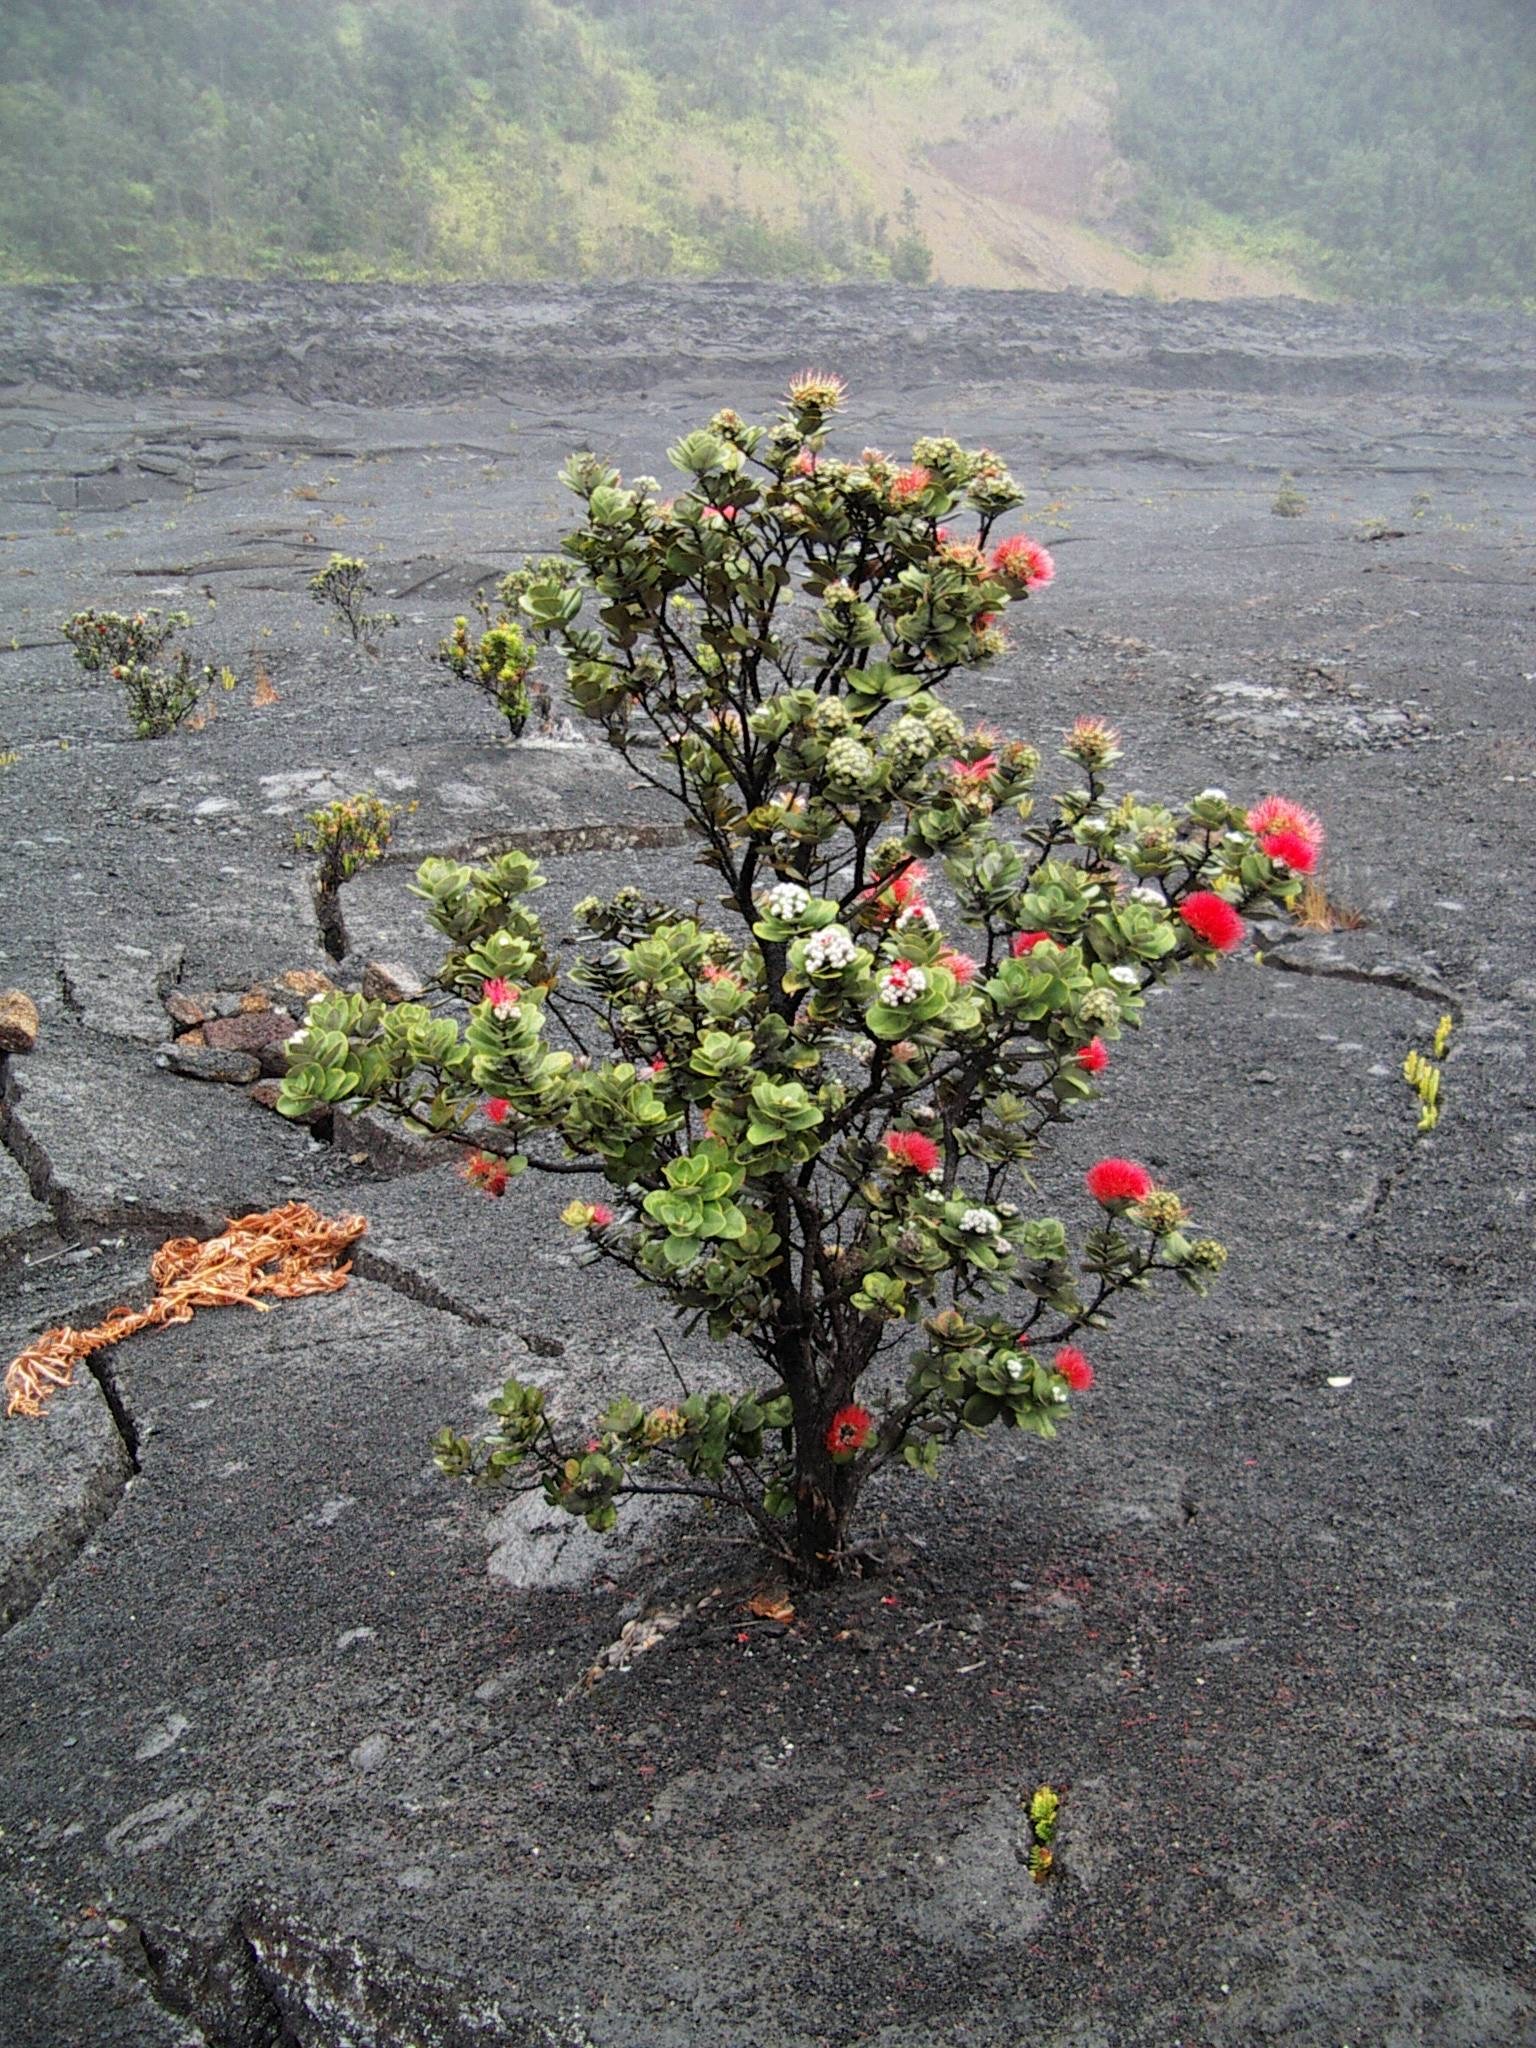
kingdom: Plantae
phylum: Tracheophyta
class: Magnoliopsida
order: Myrtales
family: Myrtaceae
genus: Metrosideros
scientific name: Metrosideros polymorpha
